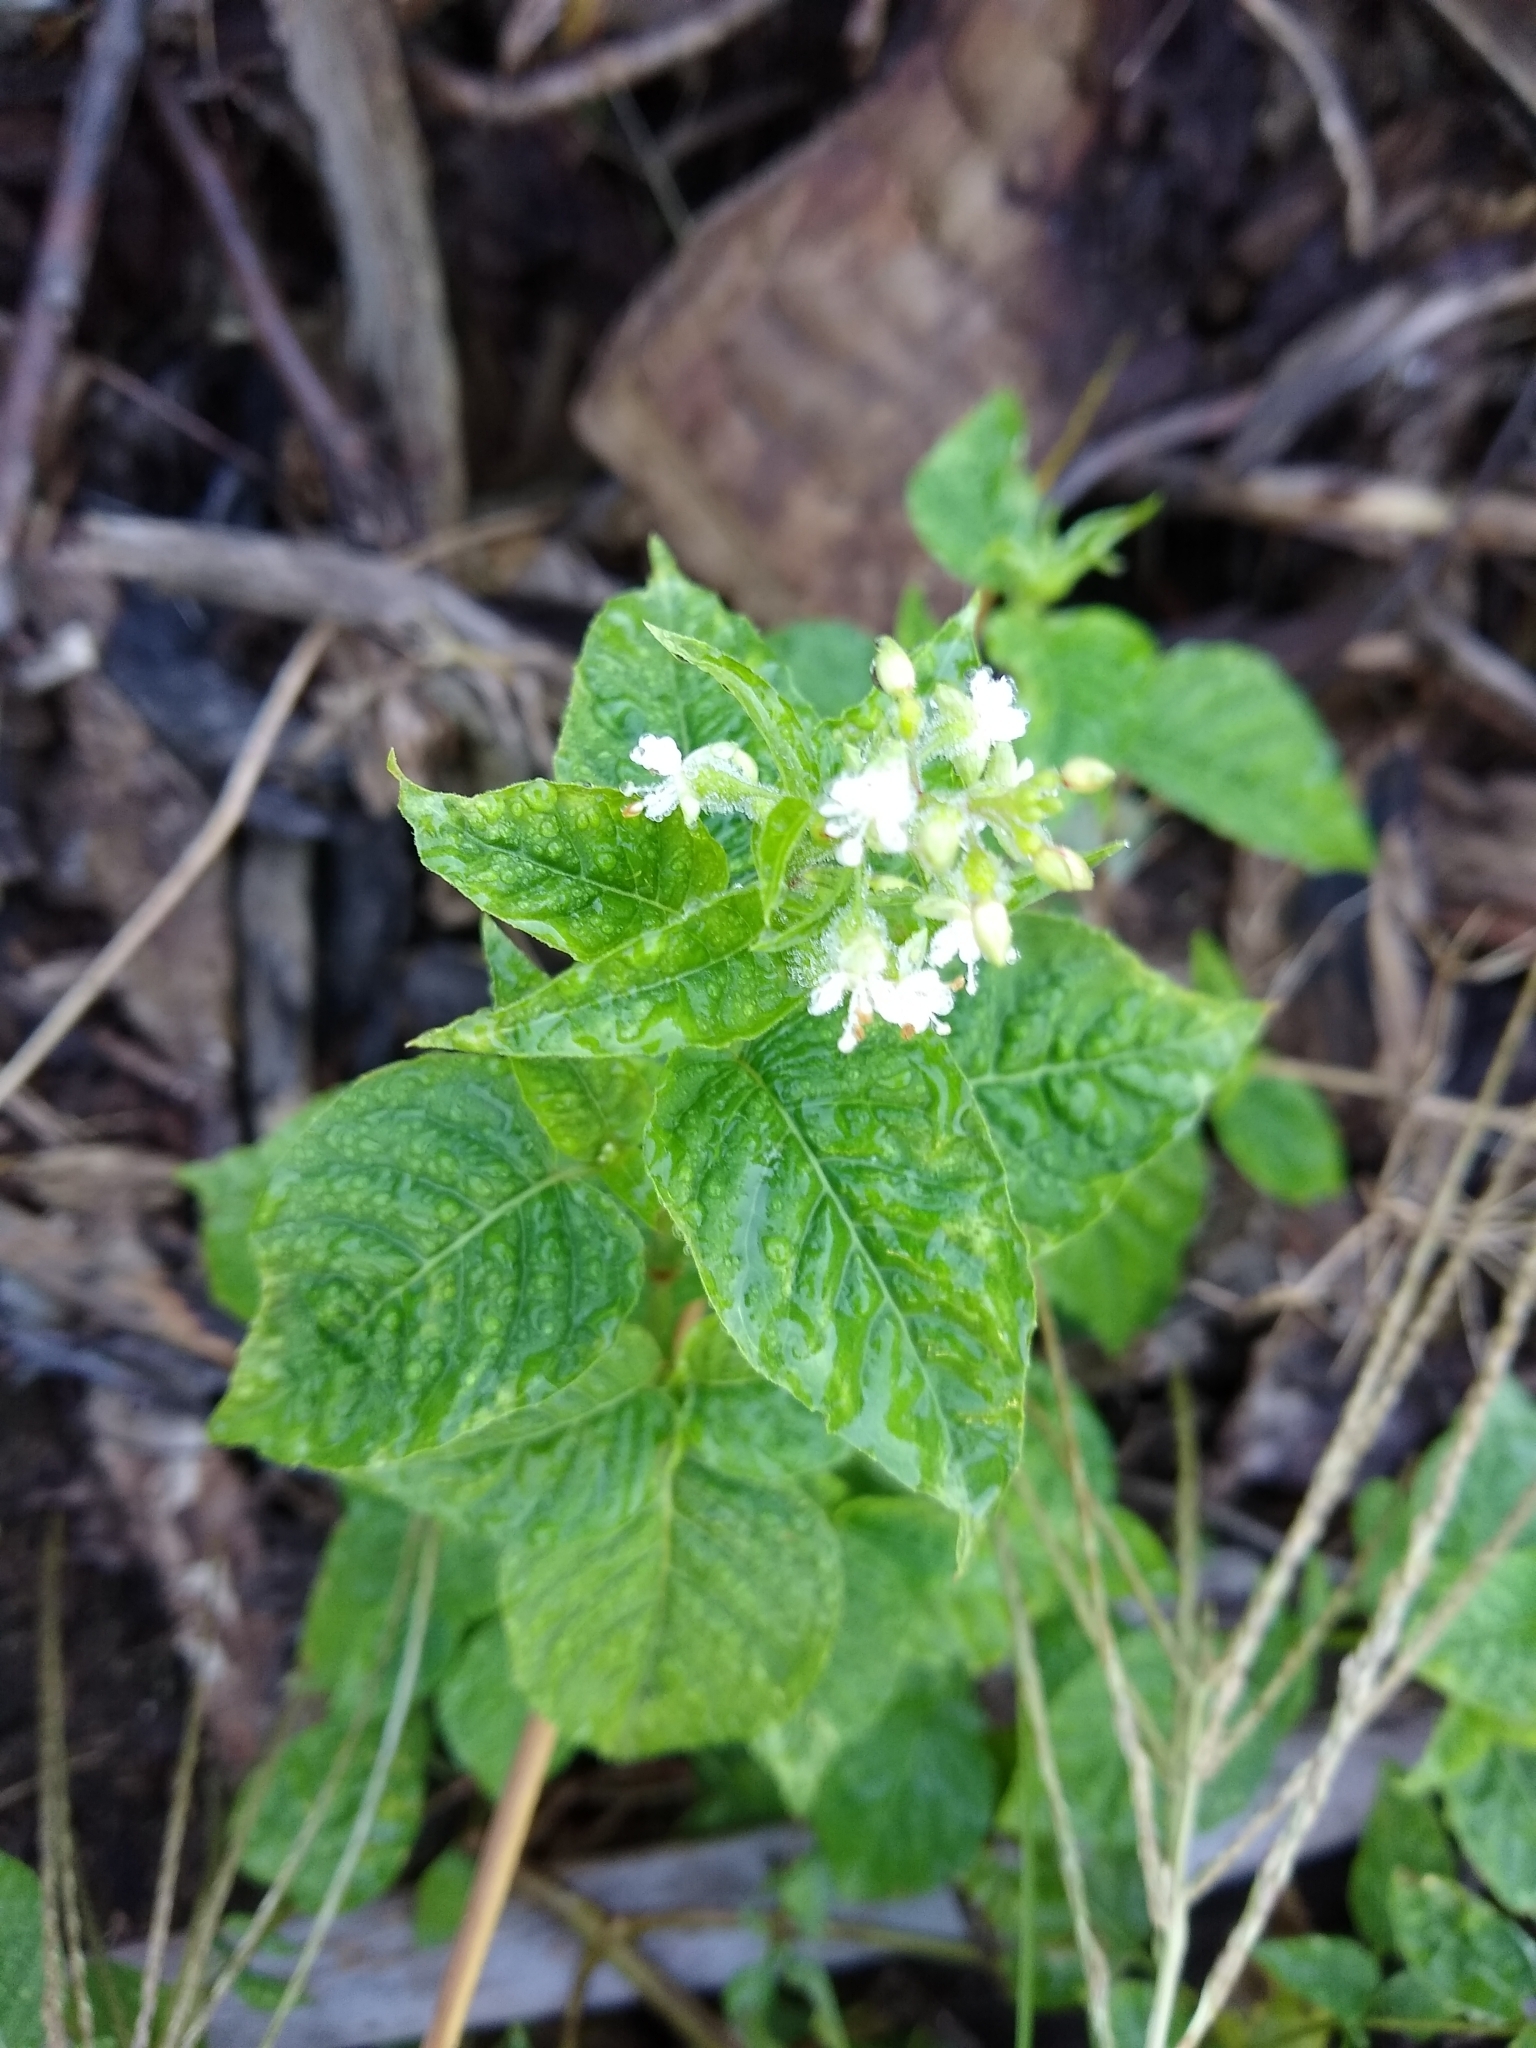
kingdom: Plantae
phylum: Tracheophyta
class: Magnoliopsida
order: Myrtales
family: Onagraceae
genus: Circaea
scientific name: Circaea canadensis
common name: Broad-leaved enchanter's nightshade
